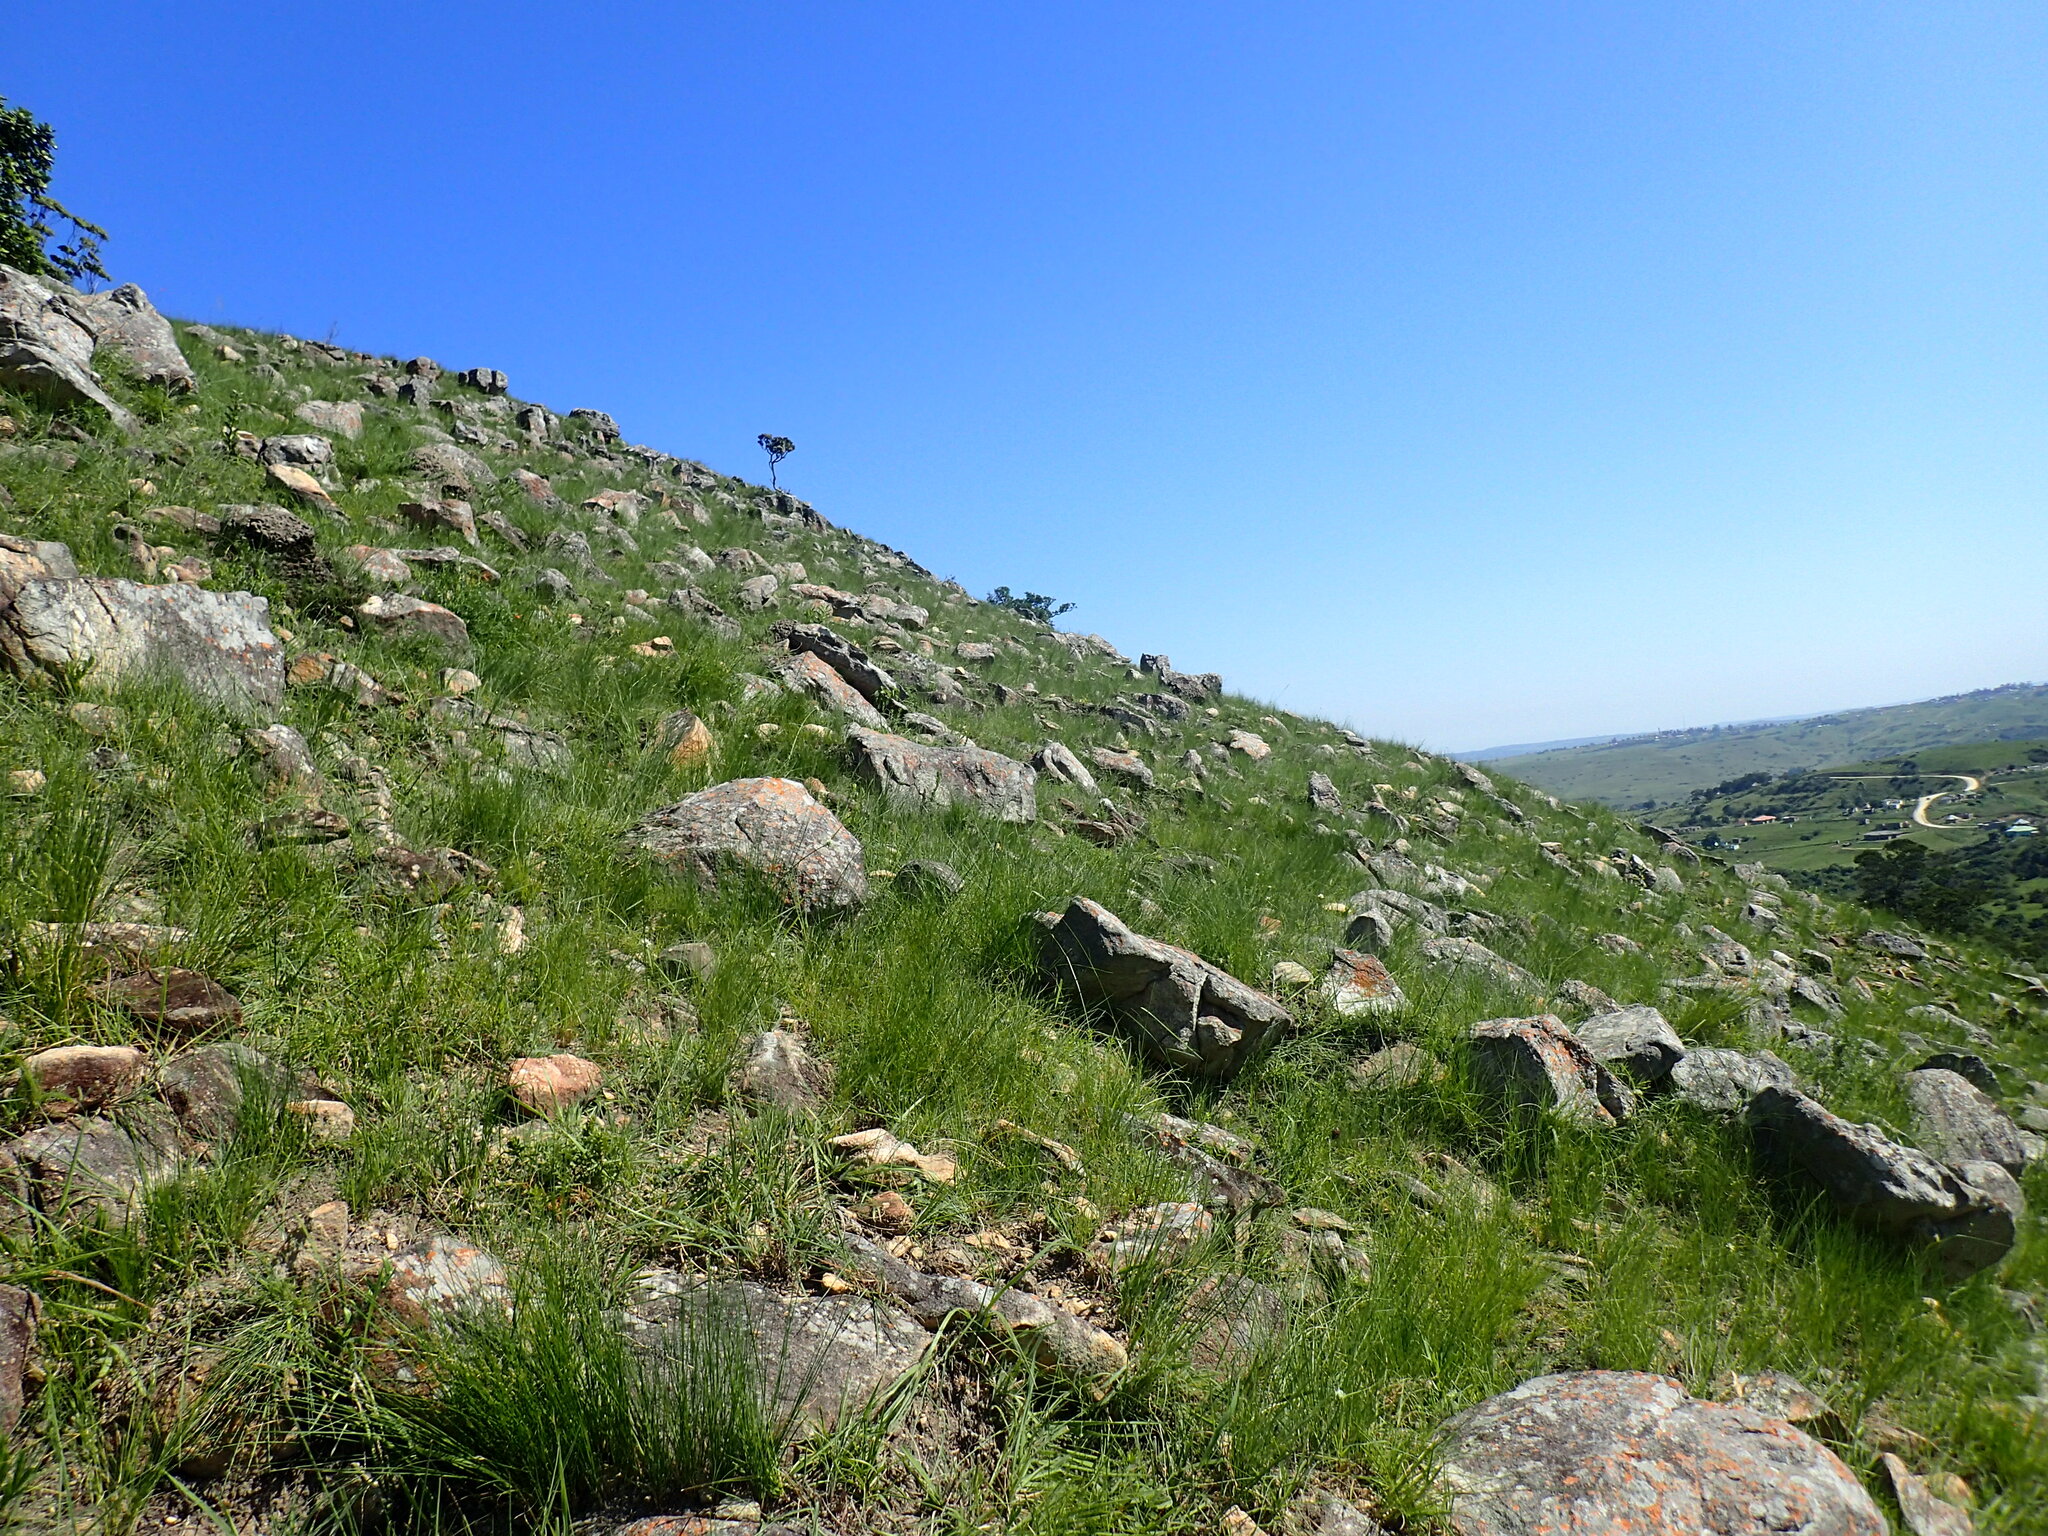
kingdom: Plantae
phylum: Tracheophyta
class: Magnoliopsida
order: Proteales
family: Proteaceae
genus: Protea
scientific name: Protea roupelliae
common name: Silver sugarbush
